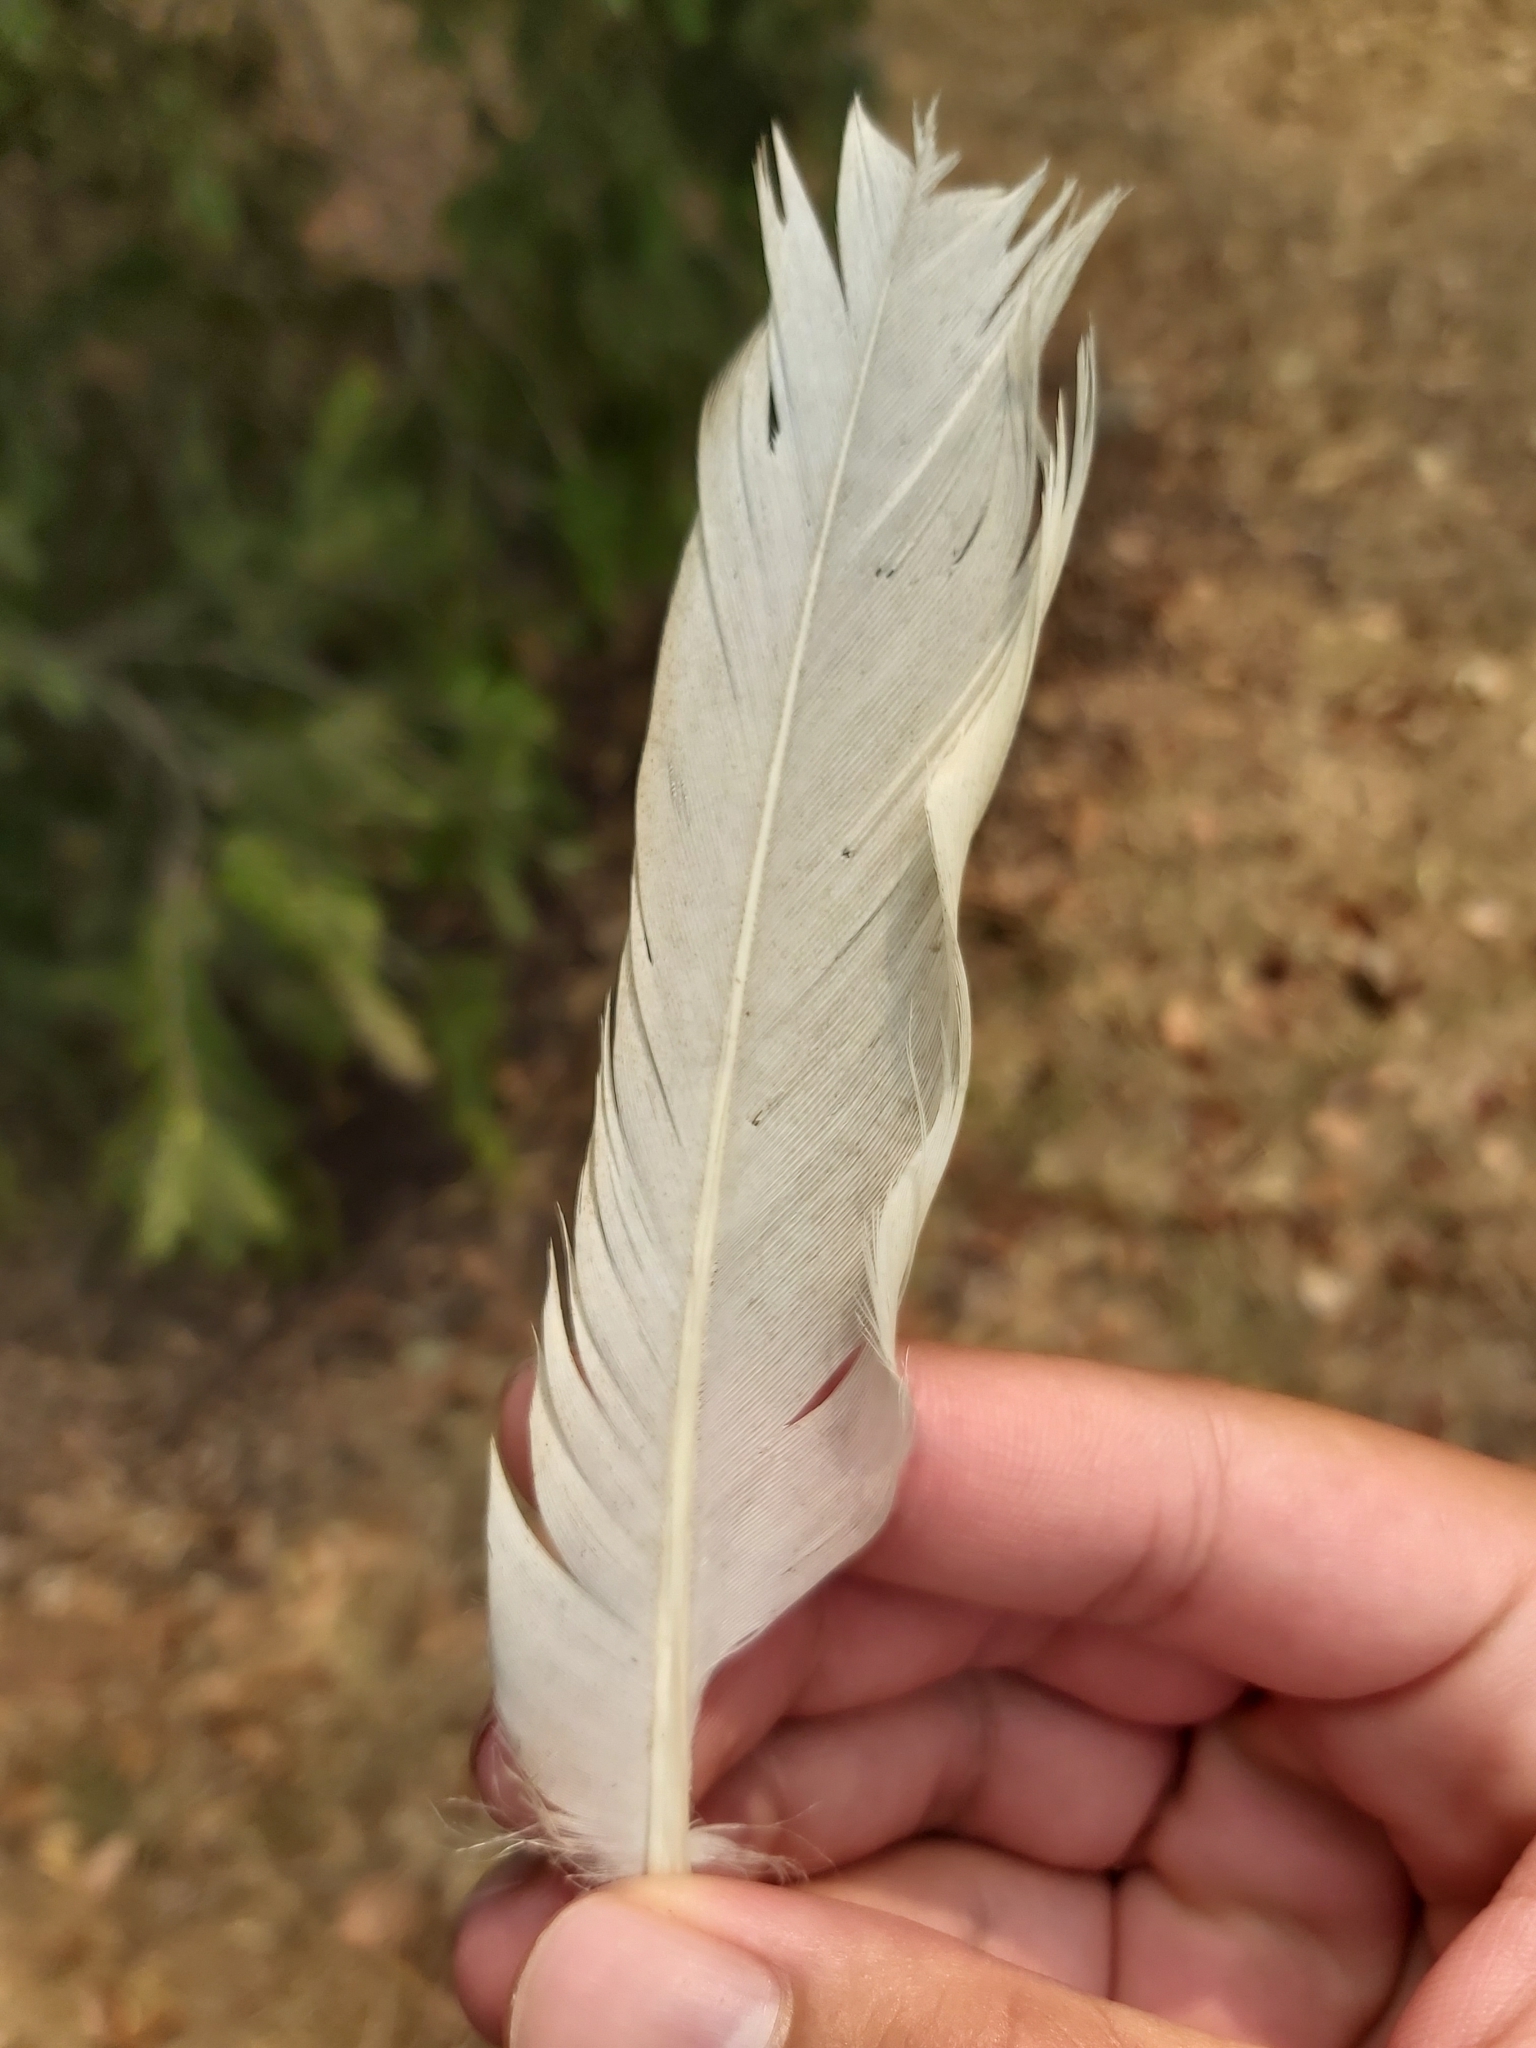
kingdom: Animalia
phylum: Chordata
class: Aves
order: Pelecaniformes
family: Threskiornithidae
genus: Threskiornis
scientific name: Threskiornis molucca
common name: Australian white ibis
